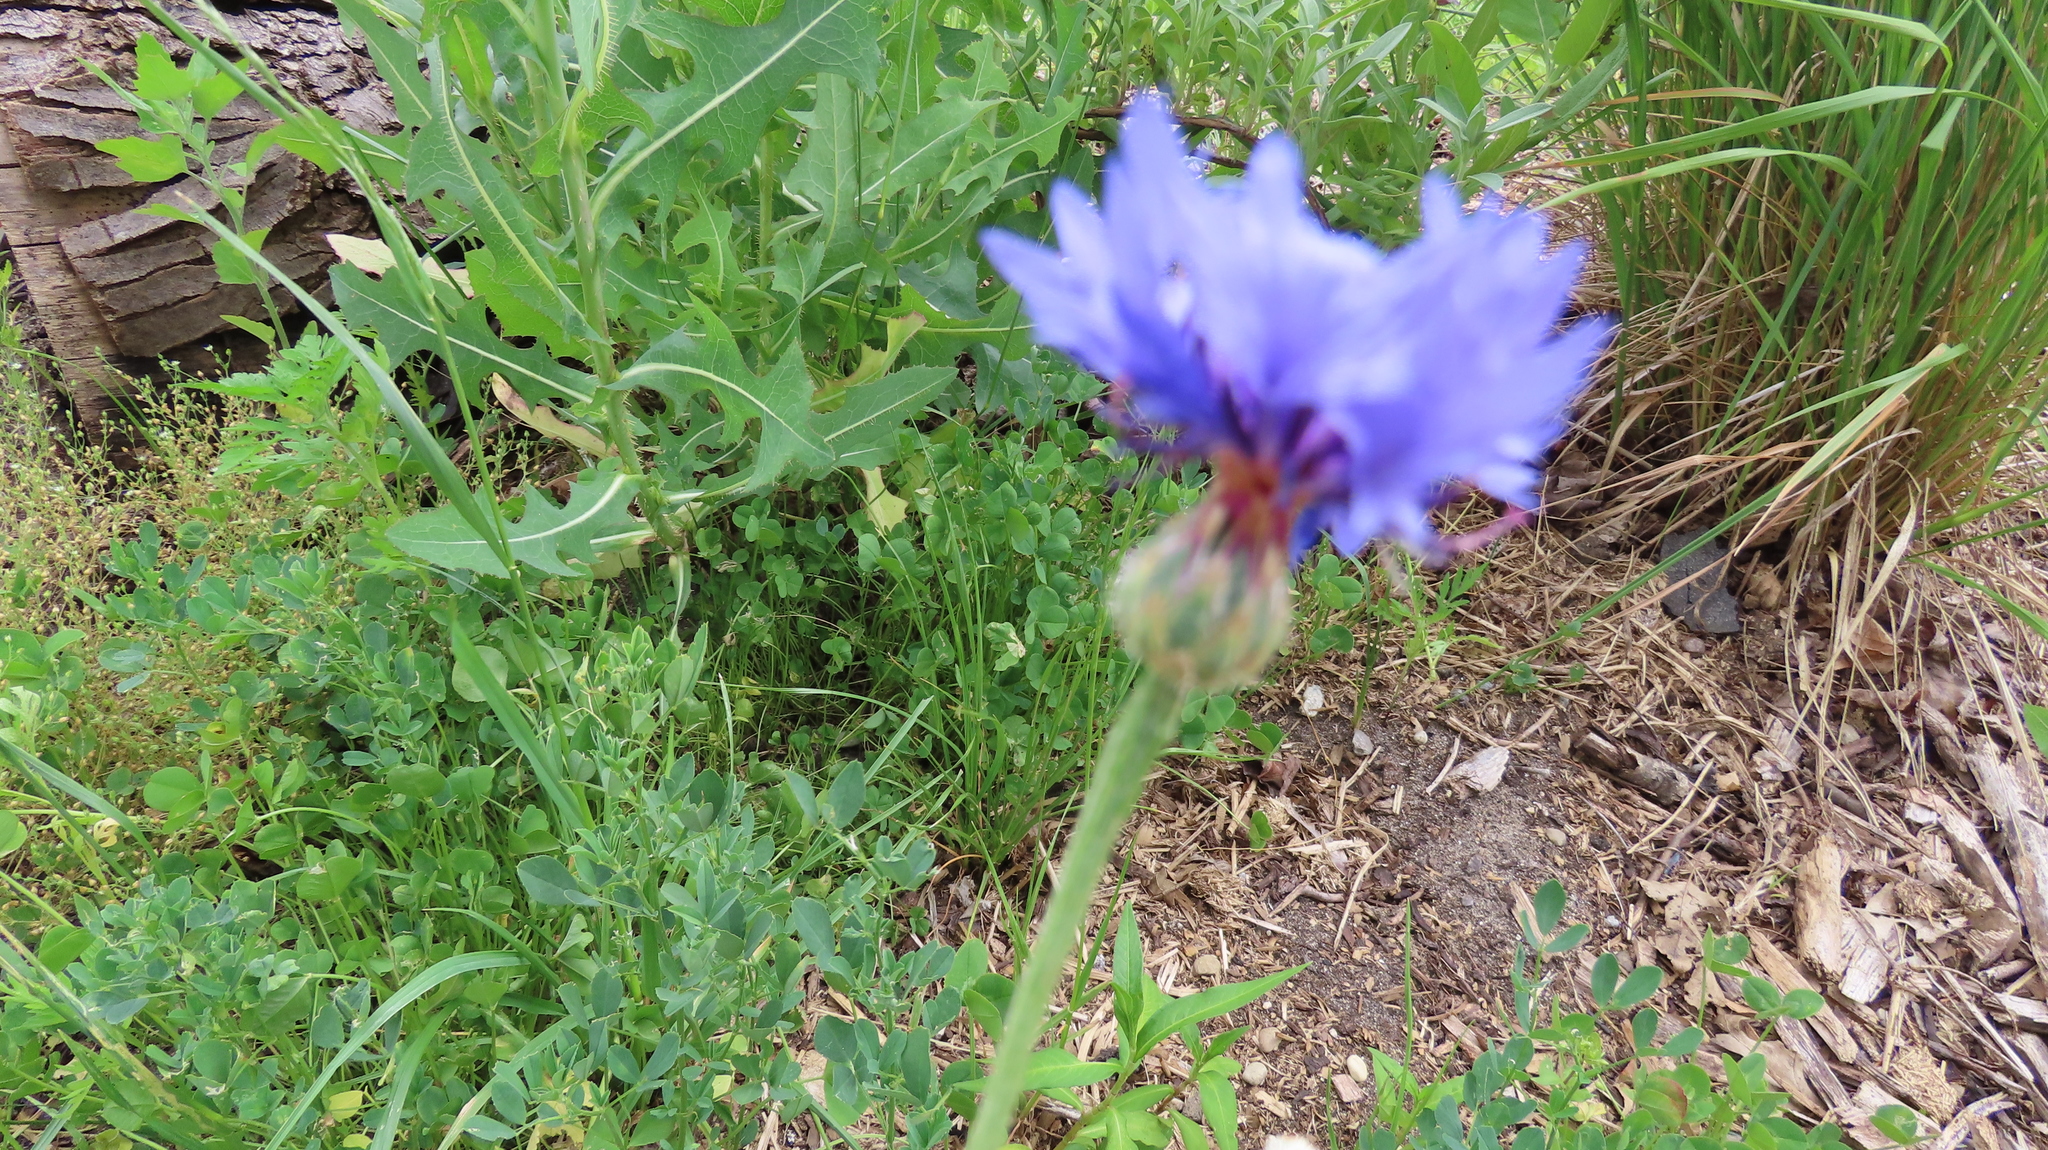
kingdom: Plantae
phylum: Tracheophyta
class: Magnoliopsida
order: Asterales
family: Asteraceae
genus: Centaurea
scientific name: Centaurea cyanus
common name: Cornflower
